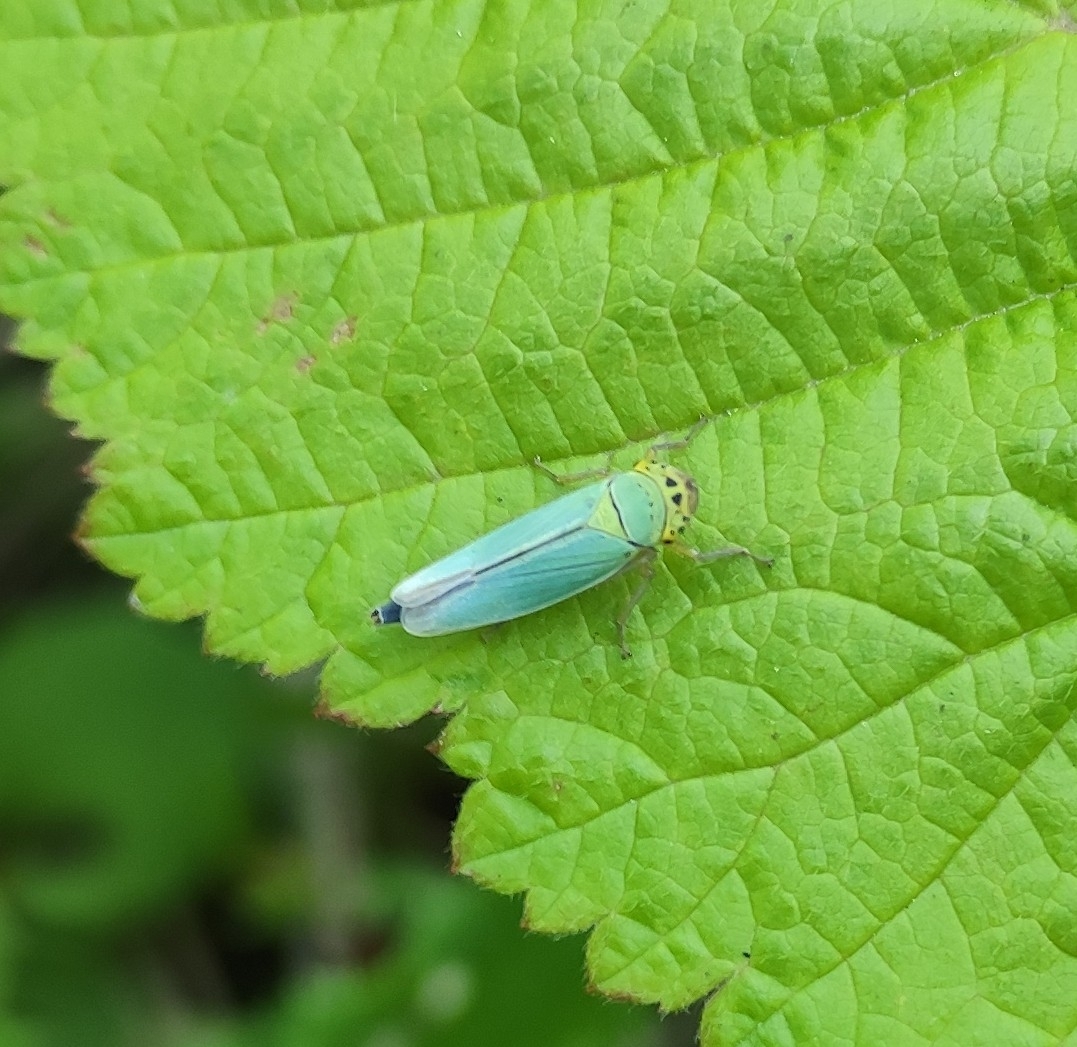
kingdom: Animalia
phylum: Arthropoda
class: Insecta
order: Hemiptera
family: Cicadellidae
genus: Cicadella
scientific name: Cicadella viridis
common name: Leafhopper
